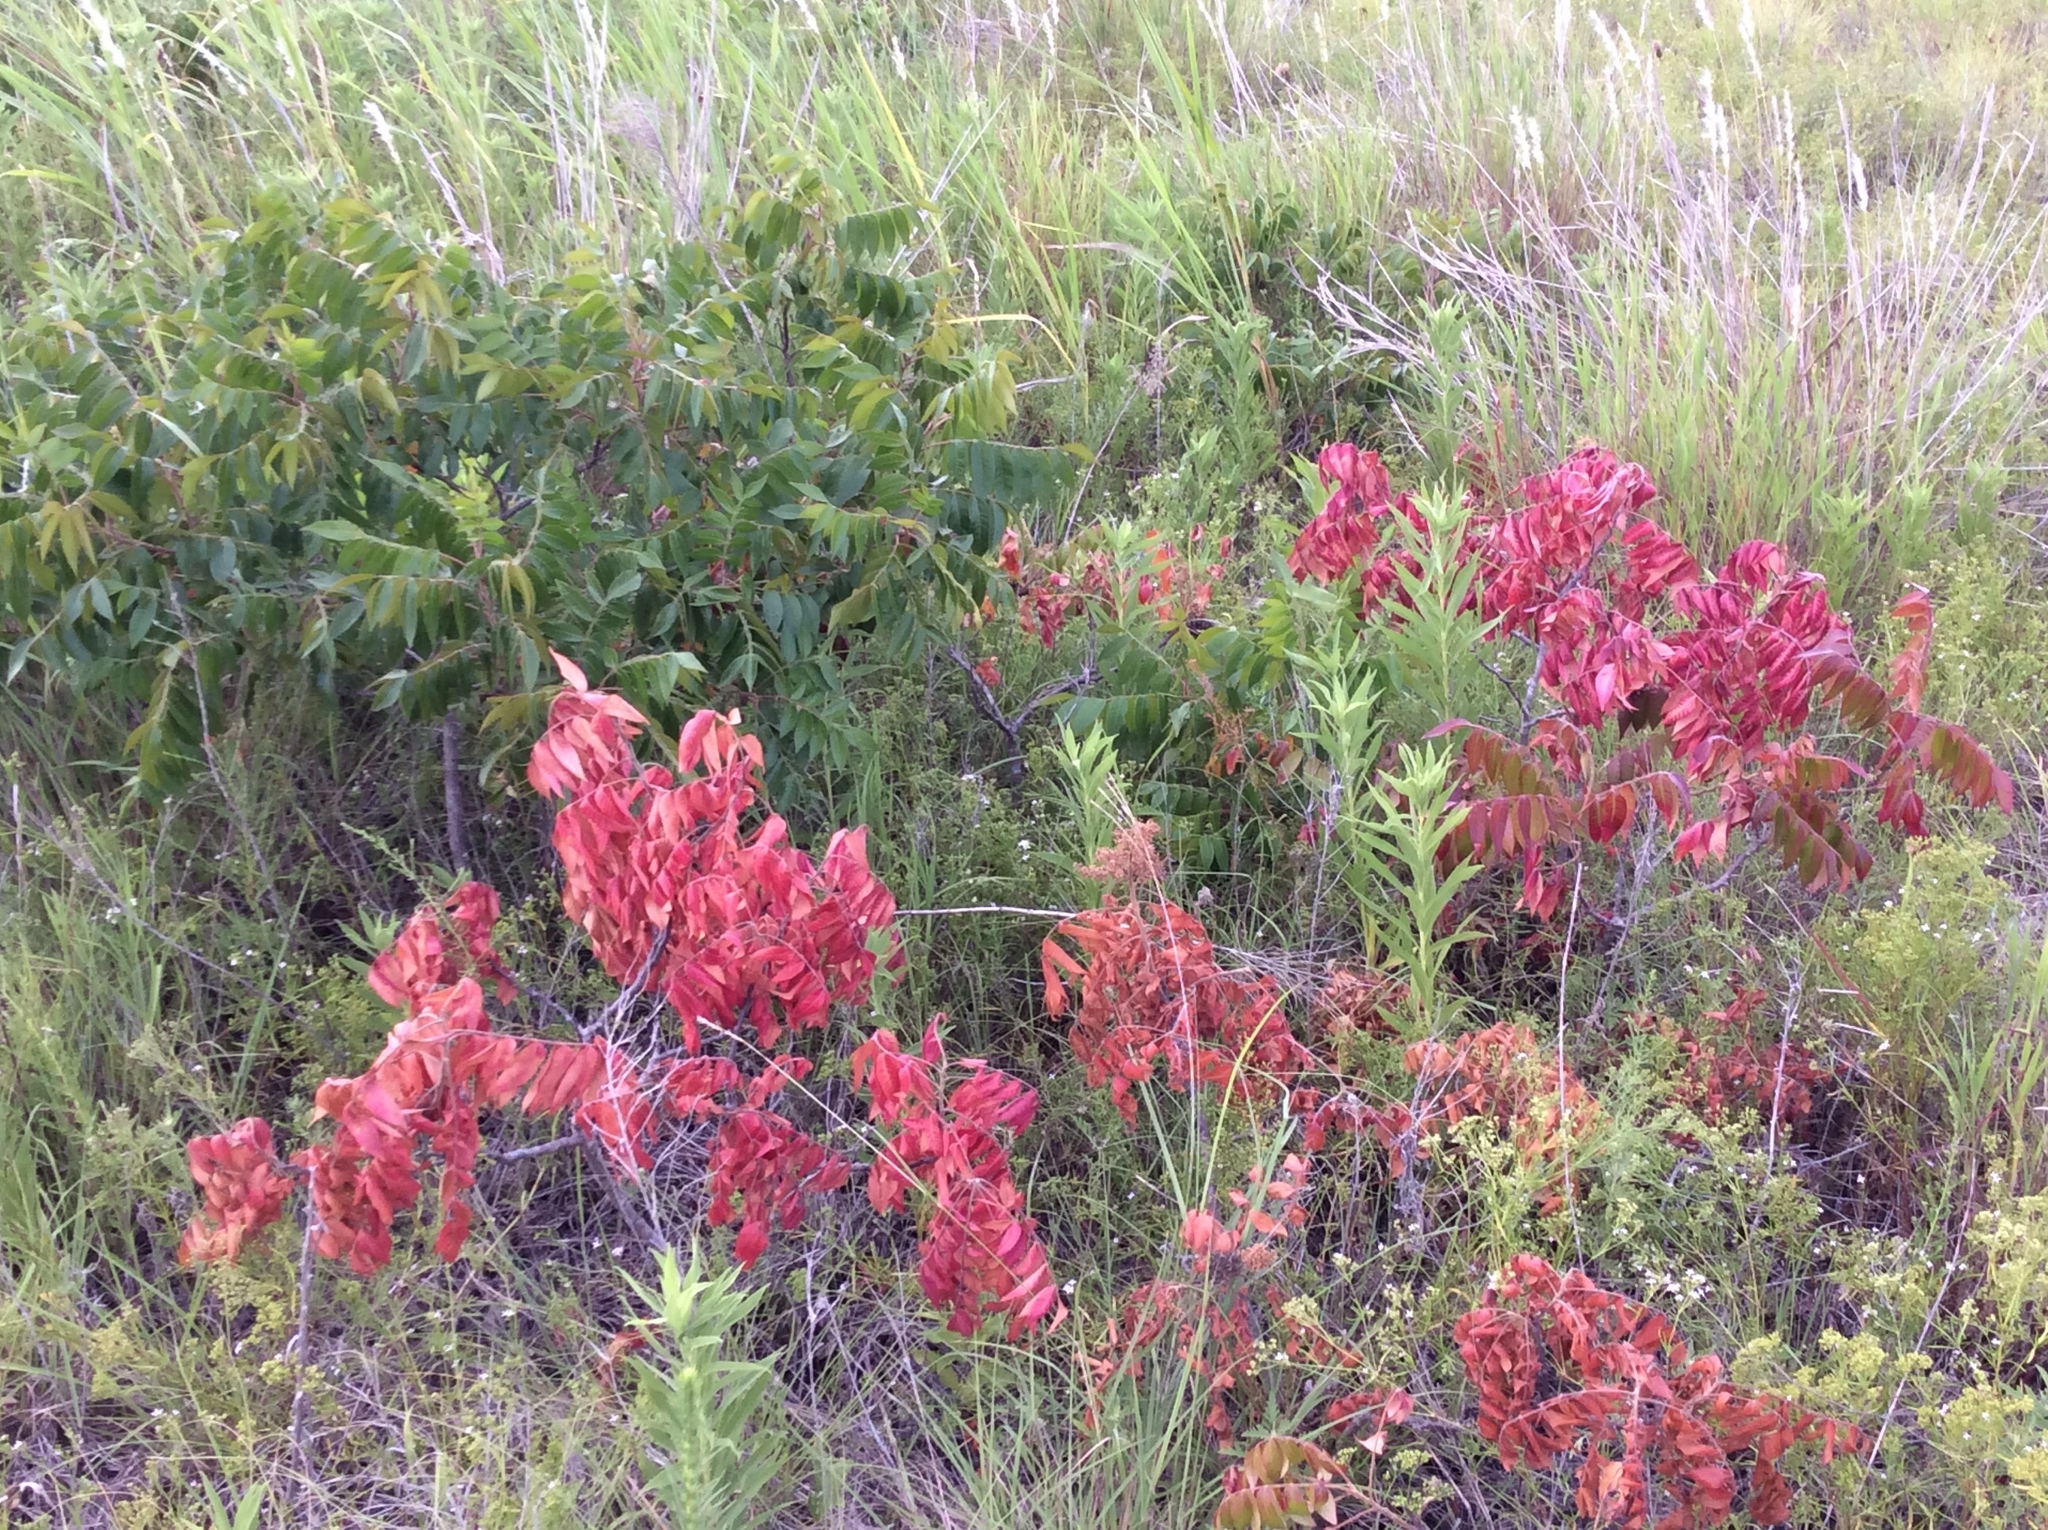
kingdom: Plantae
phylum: Tracheophyta
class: Magnoliopsida
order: Sapindales
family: Anacardiaceae
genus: Rhus
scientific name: Rhus copallina
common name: Shining sumac
